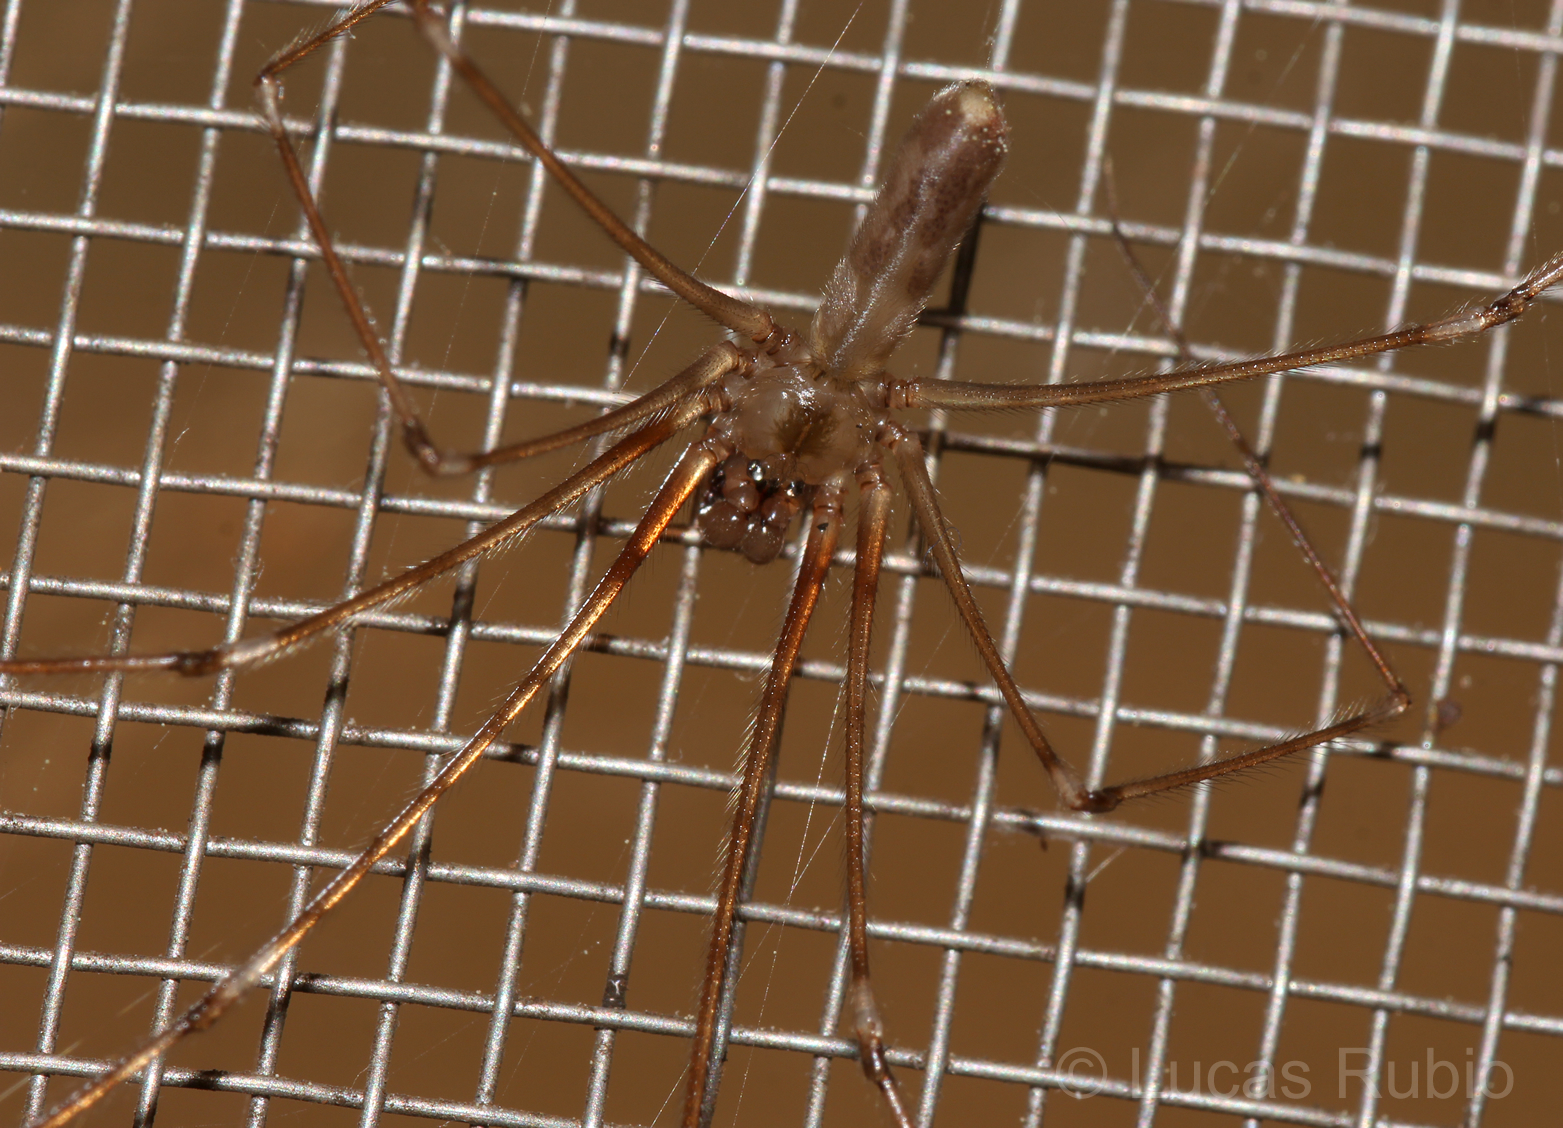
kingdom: Animalia
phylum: Arthropoda
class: Arachnida
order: Araneae
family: Pholcidae
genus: Pholcus
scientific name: Pholcus phalangioides
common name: Longbodied cellar spider
